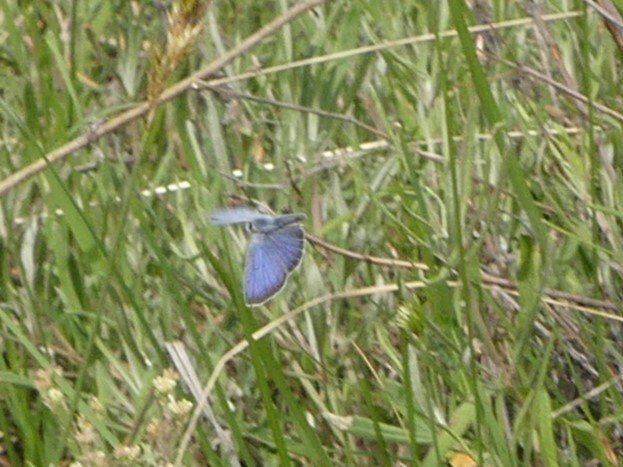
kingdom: Animalia
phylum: Arthropoda
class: Insecta
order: Lepidoptera
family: Lycaenidae
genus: Icaricia
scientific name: Icaricia icarioides
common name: Boisduval's blue
